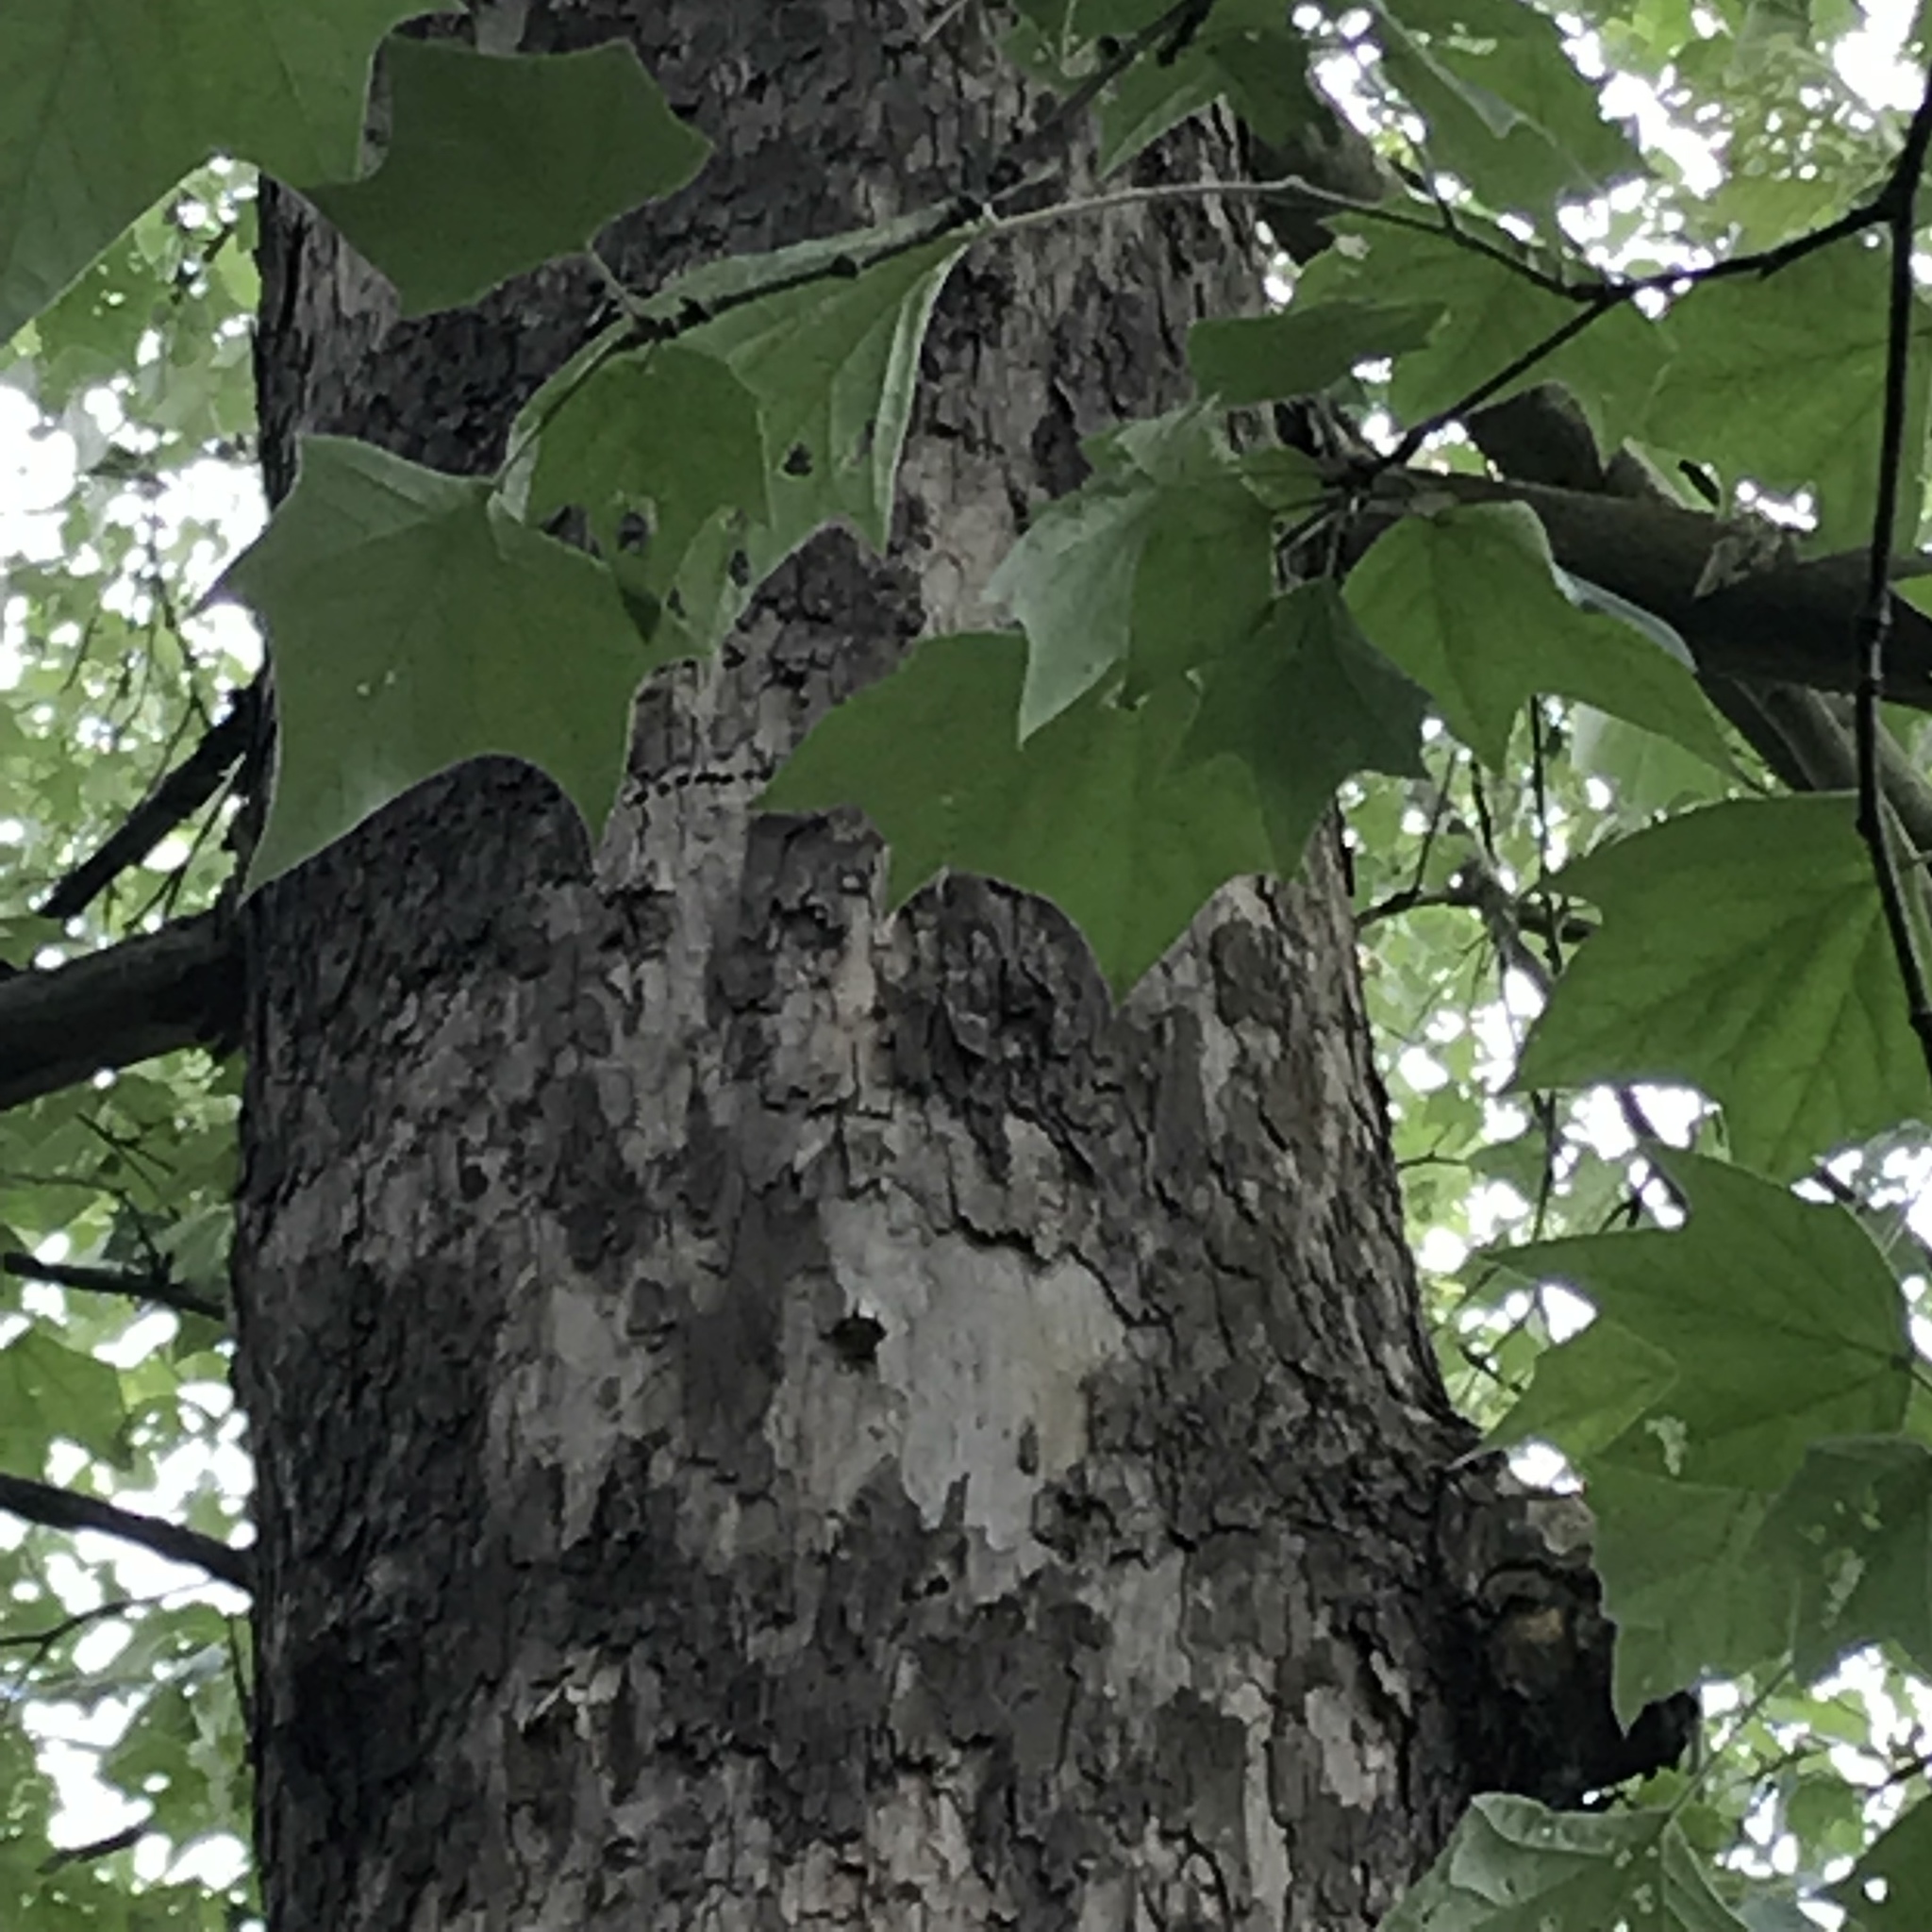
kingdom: Plantae
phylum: Tracheophyta
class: Magnoliopsida
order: Proteales
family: Platanaceae
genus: Platanus
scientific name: Platanus rzedowskii
